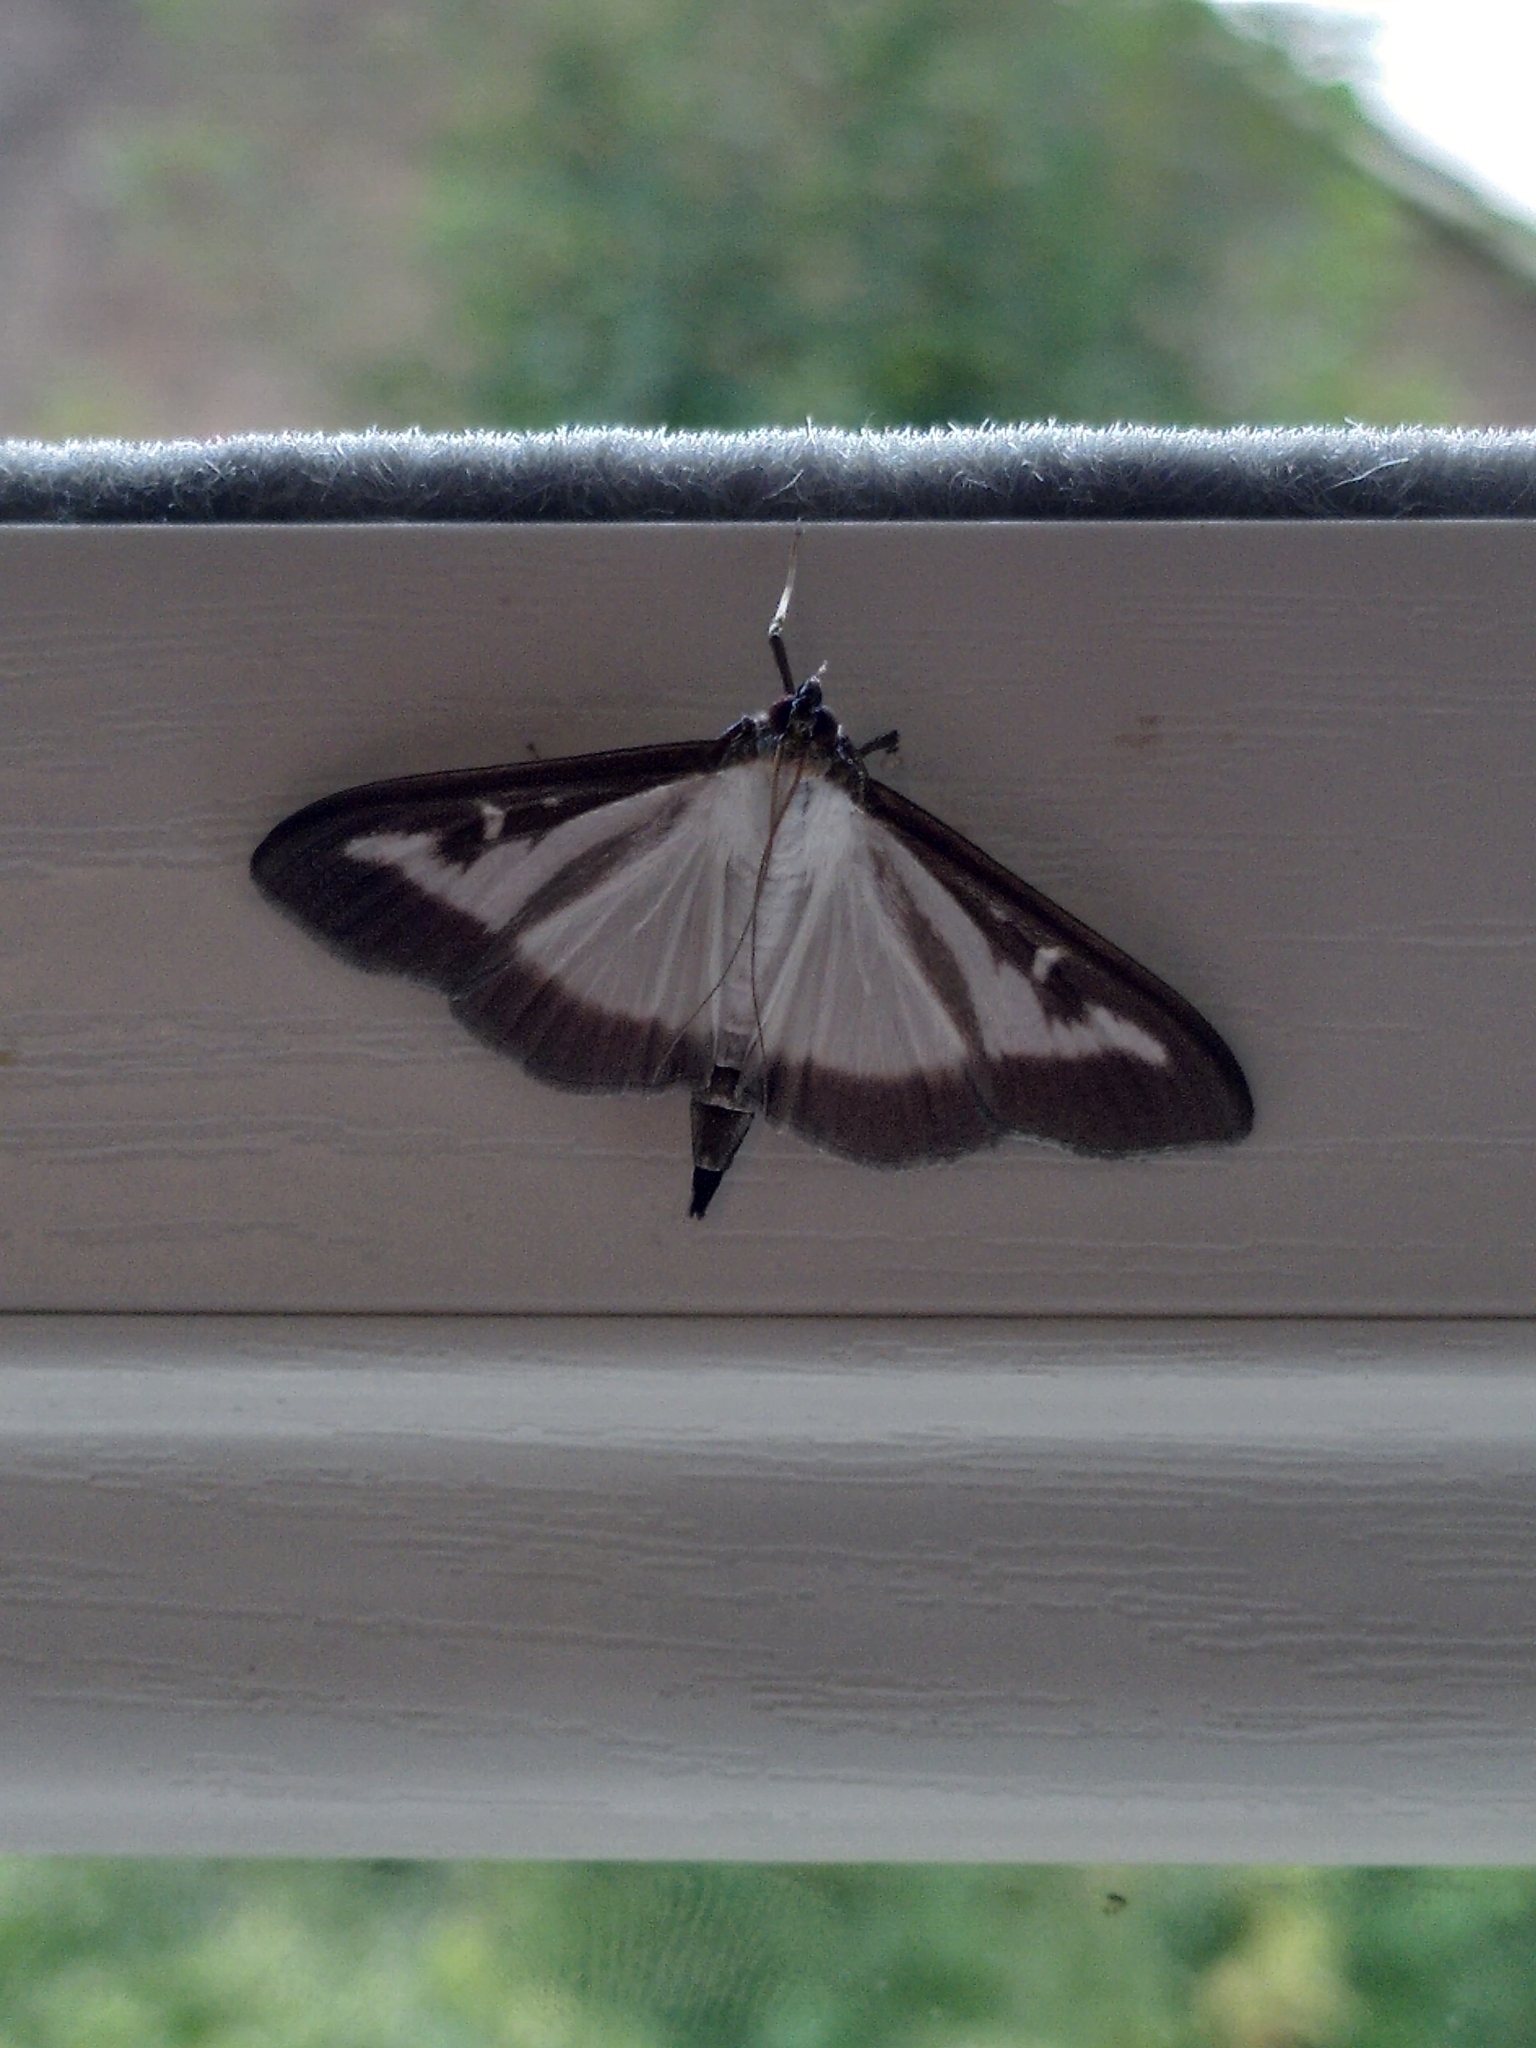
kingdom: Animalia
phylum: Arthropoda
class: Insecta
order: Lepidoptera
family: Crambidae
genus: Cydalima
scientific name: Cydalima perspectalis
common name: Box tree moth
